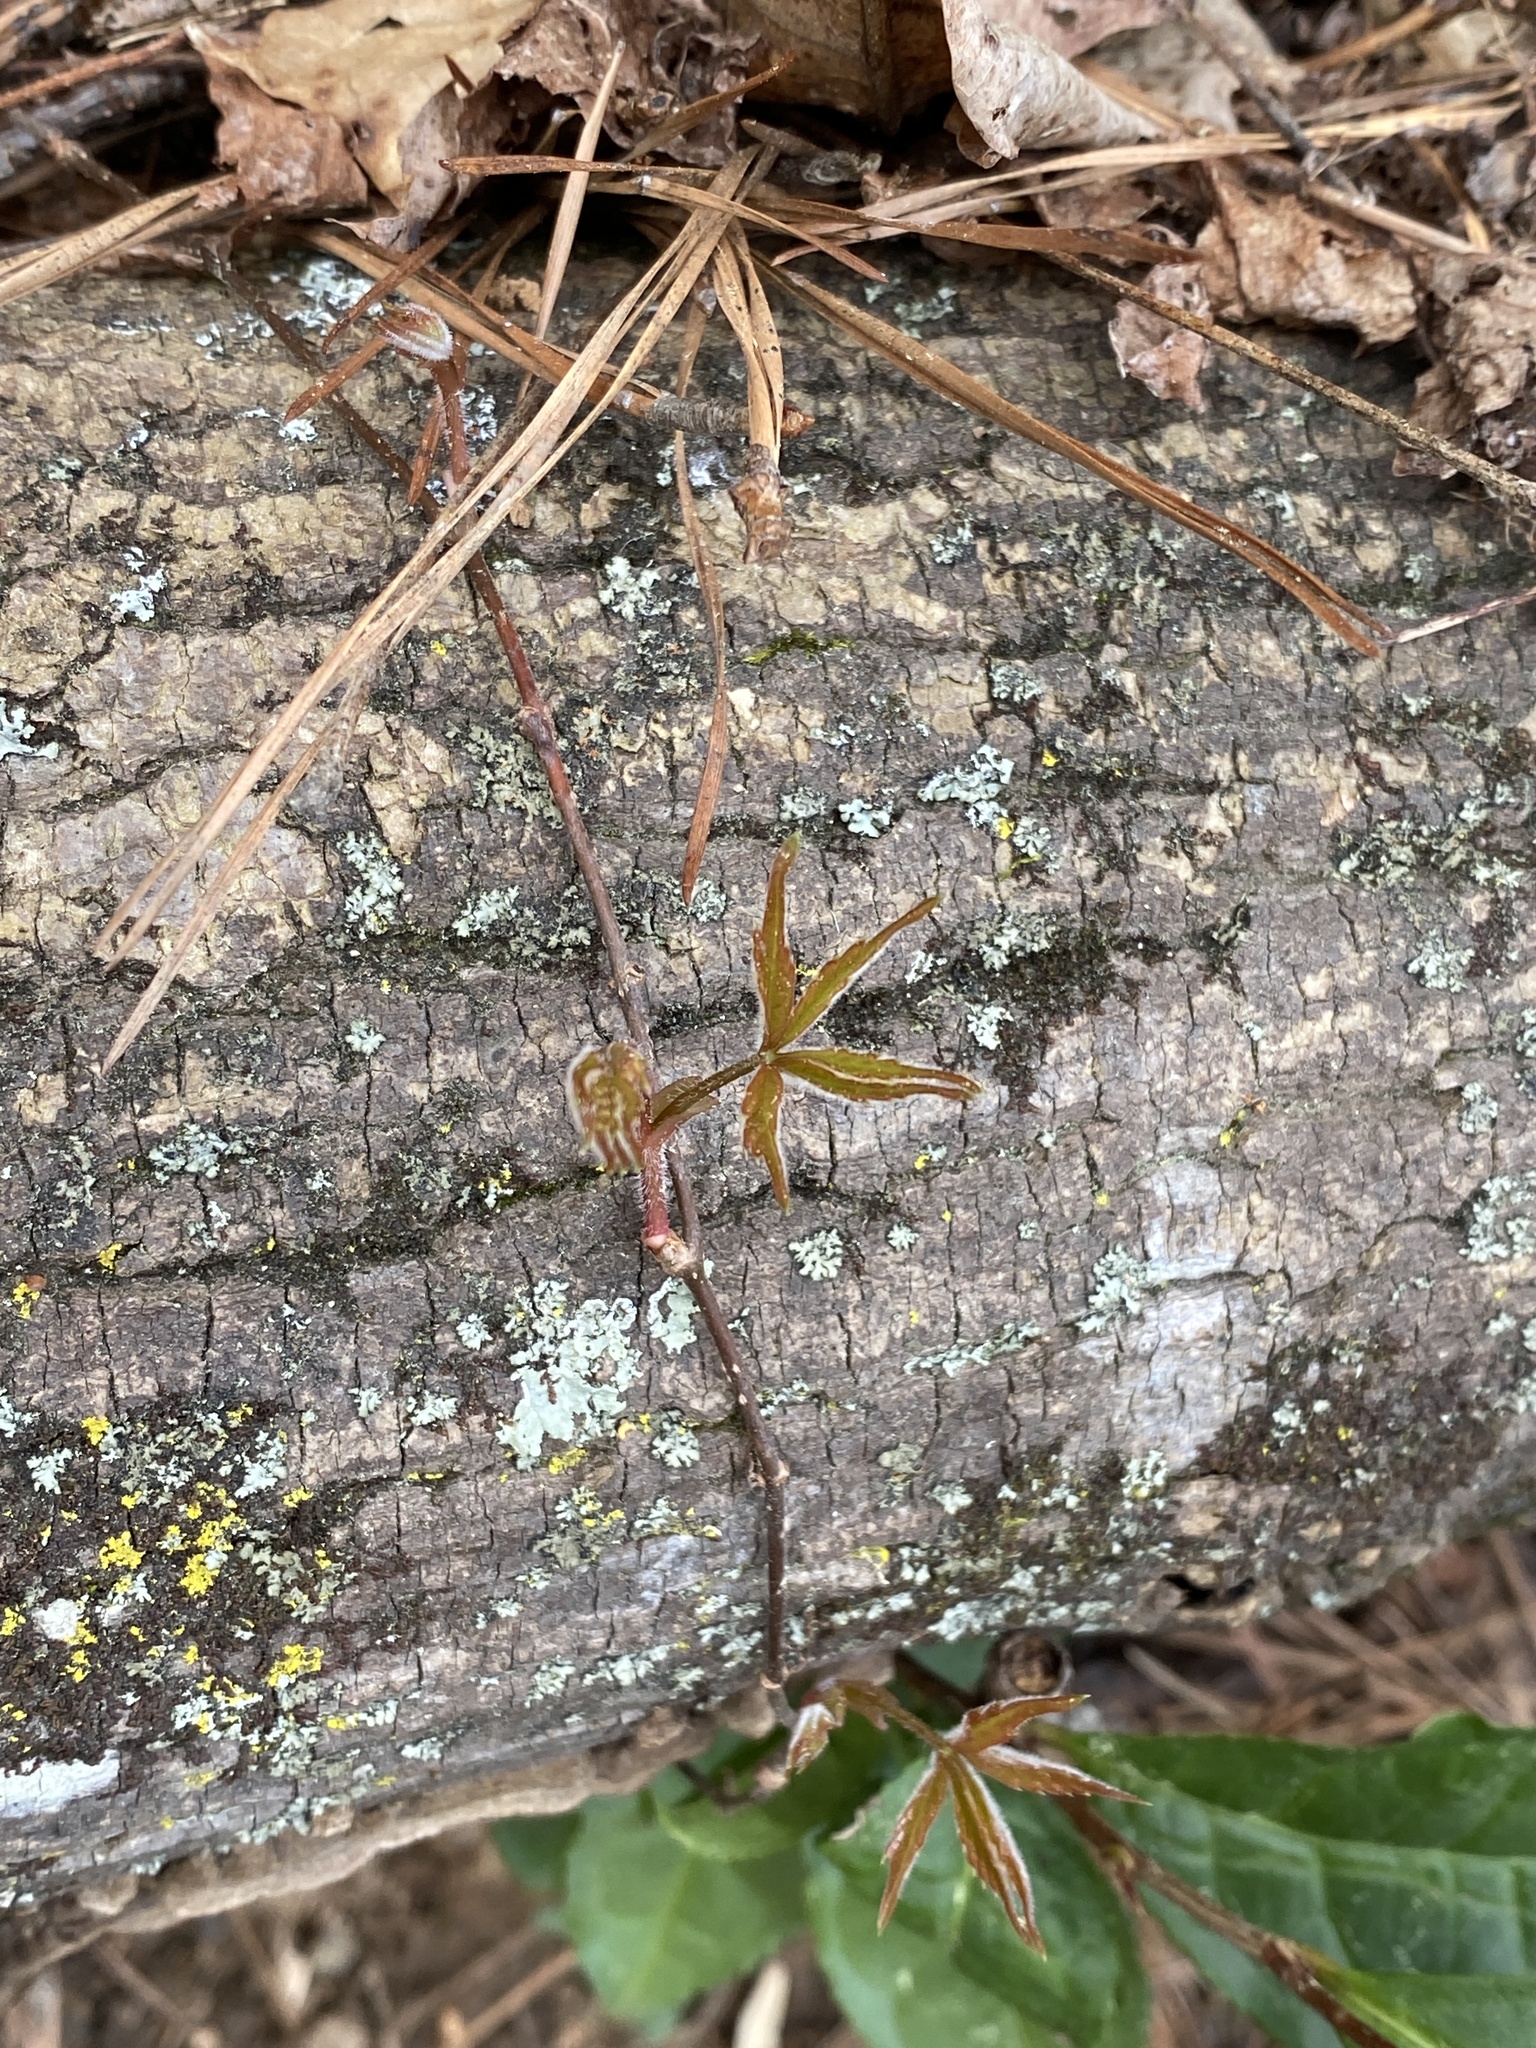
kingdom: Plantae
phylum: Tracheophyta
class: Magnoliopsida
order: Vitales
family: Vitaceae
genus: Parthenocissus
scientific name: Parthenocissus quinquefolia
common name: Virginia-creeper
